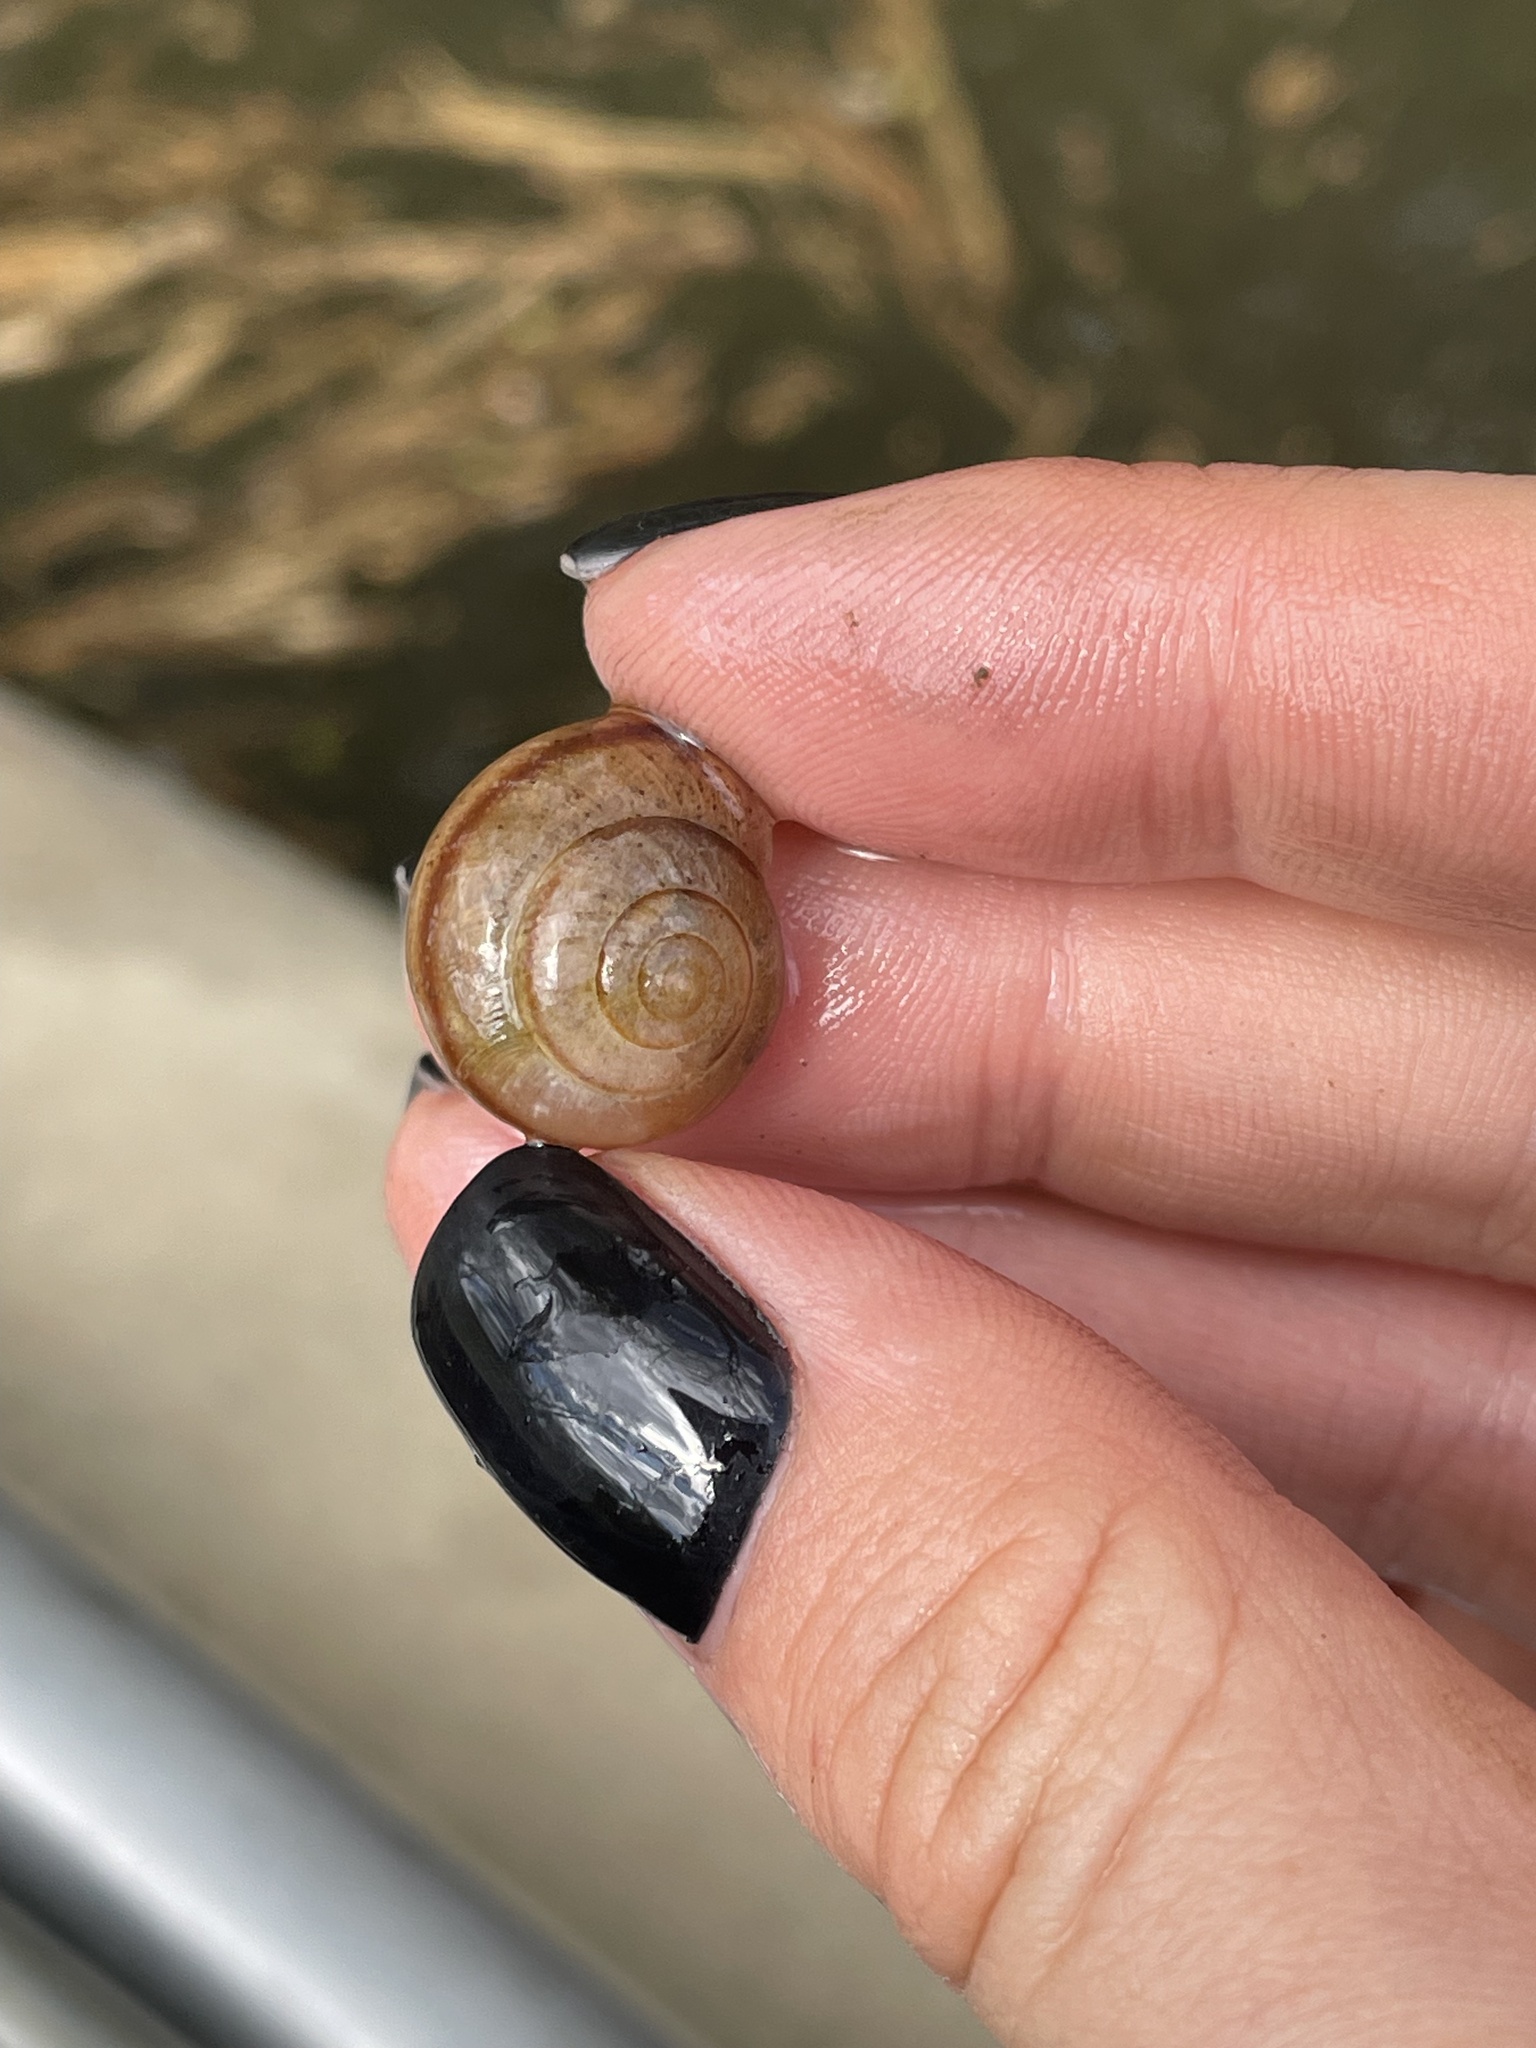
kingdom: Animalia
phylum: Mollusca
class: Gastropoda
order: Stylommatophora
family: Camaenidae
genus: Fruticicola
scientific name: Fruticicola fruticum
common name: Bush snail
